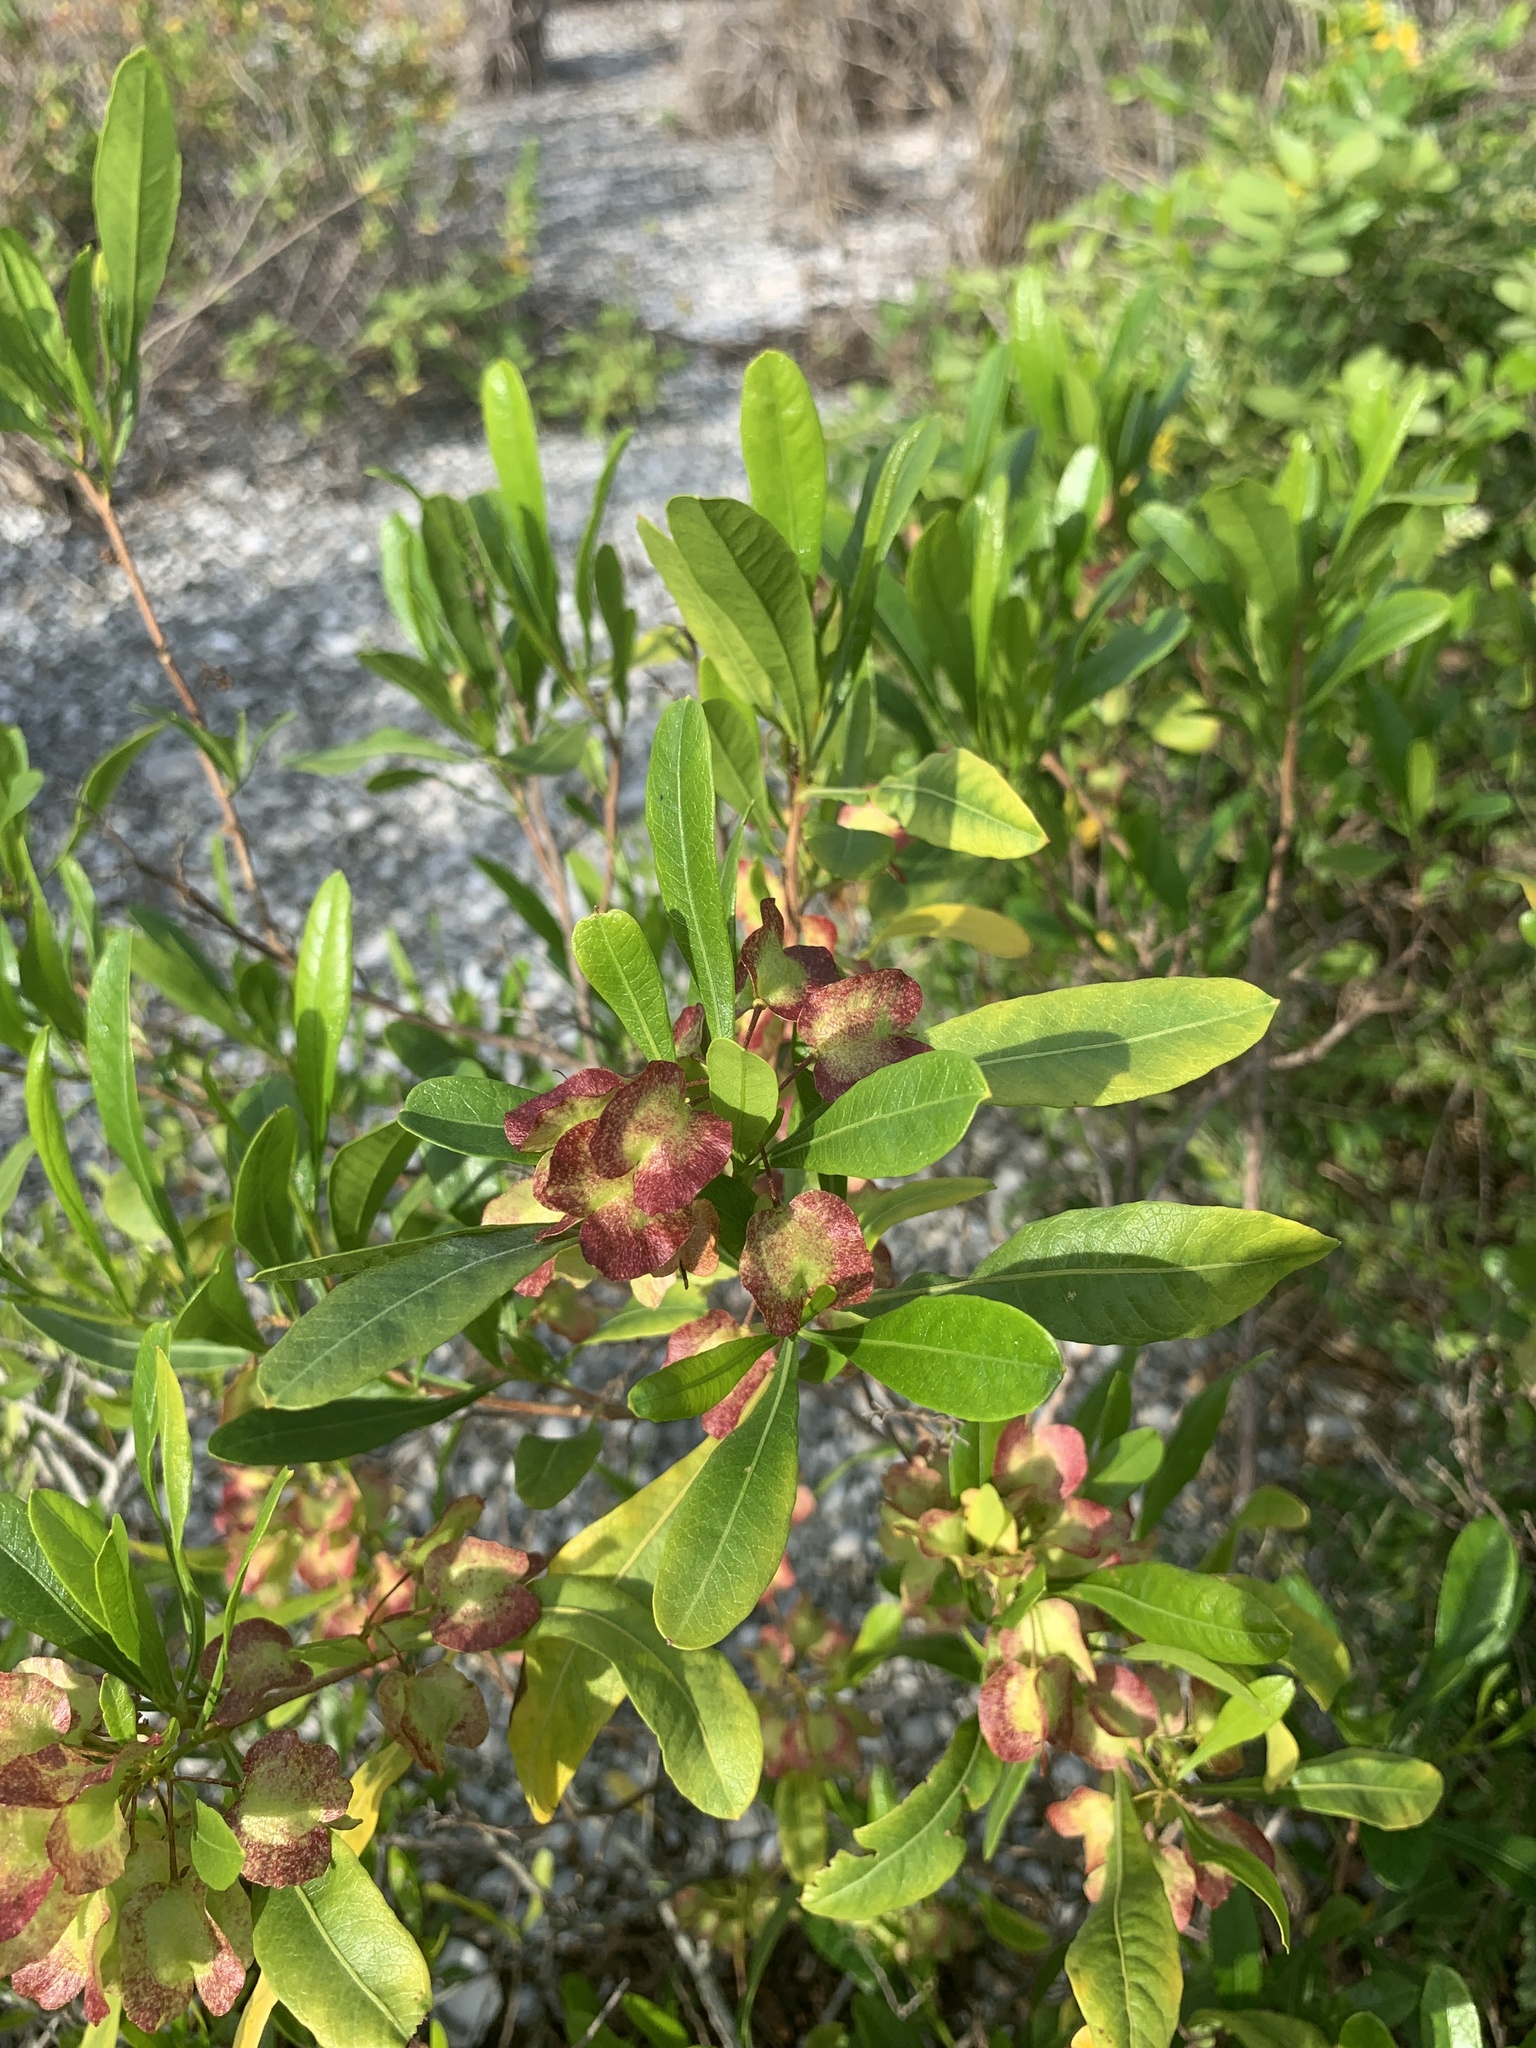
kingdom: Plantae
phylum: Tracheophyta
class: Magnoliopsida
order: Sapindales
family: Sapindaceae
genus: Dodonaea
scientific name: Dodonaea viscosa
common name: Hopbush
